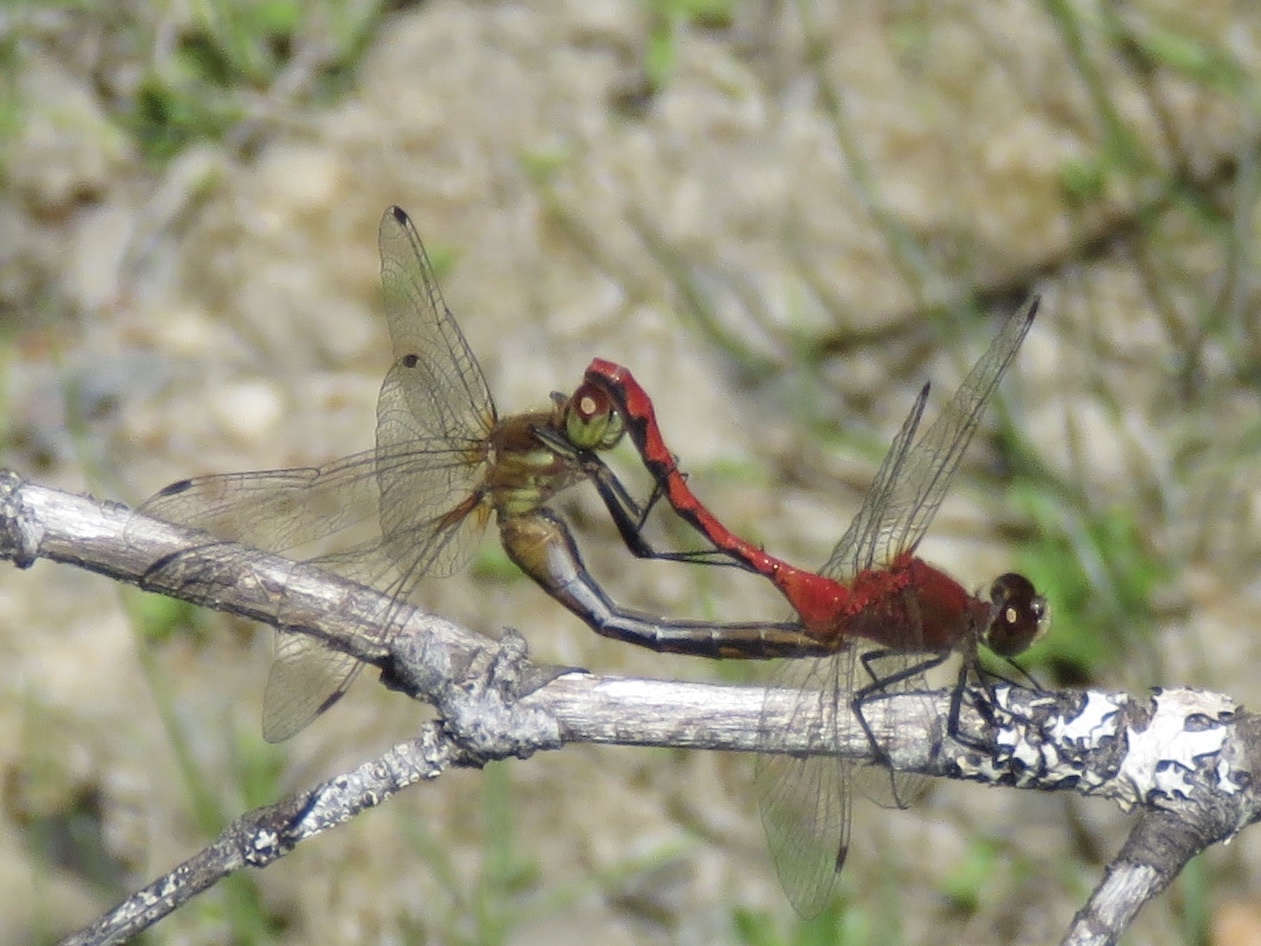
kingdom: Animalia
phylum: Arthropoda
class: Insecta
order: Odonata
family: Libellulidae
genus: Sympetrum
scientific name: Sympetrum obtrusum
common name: White-faced meadowhawk
